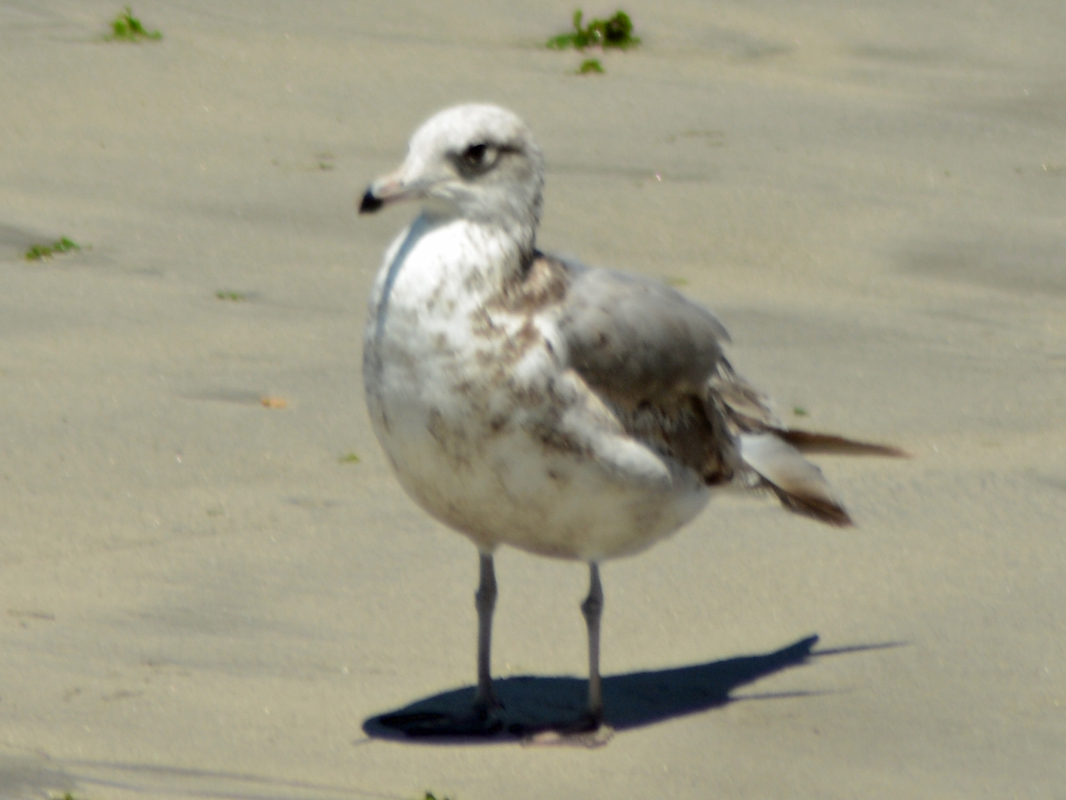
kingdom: Animalia
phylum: Chordata
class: Aves
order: Charadriiformes
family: Laridae
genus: Larus
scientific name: Larus delawarensis
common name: Ring-billed gull
